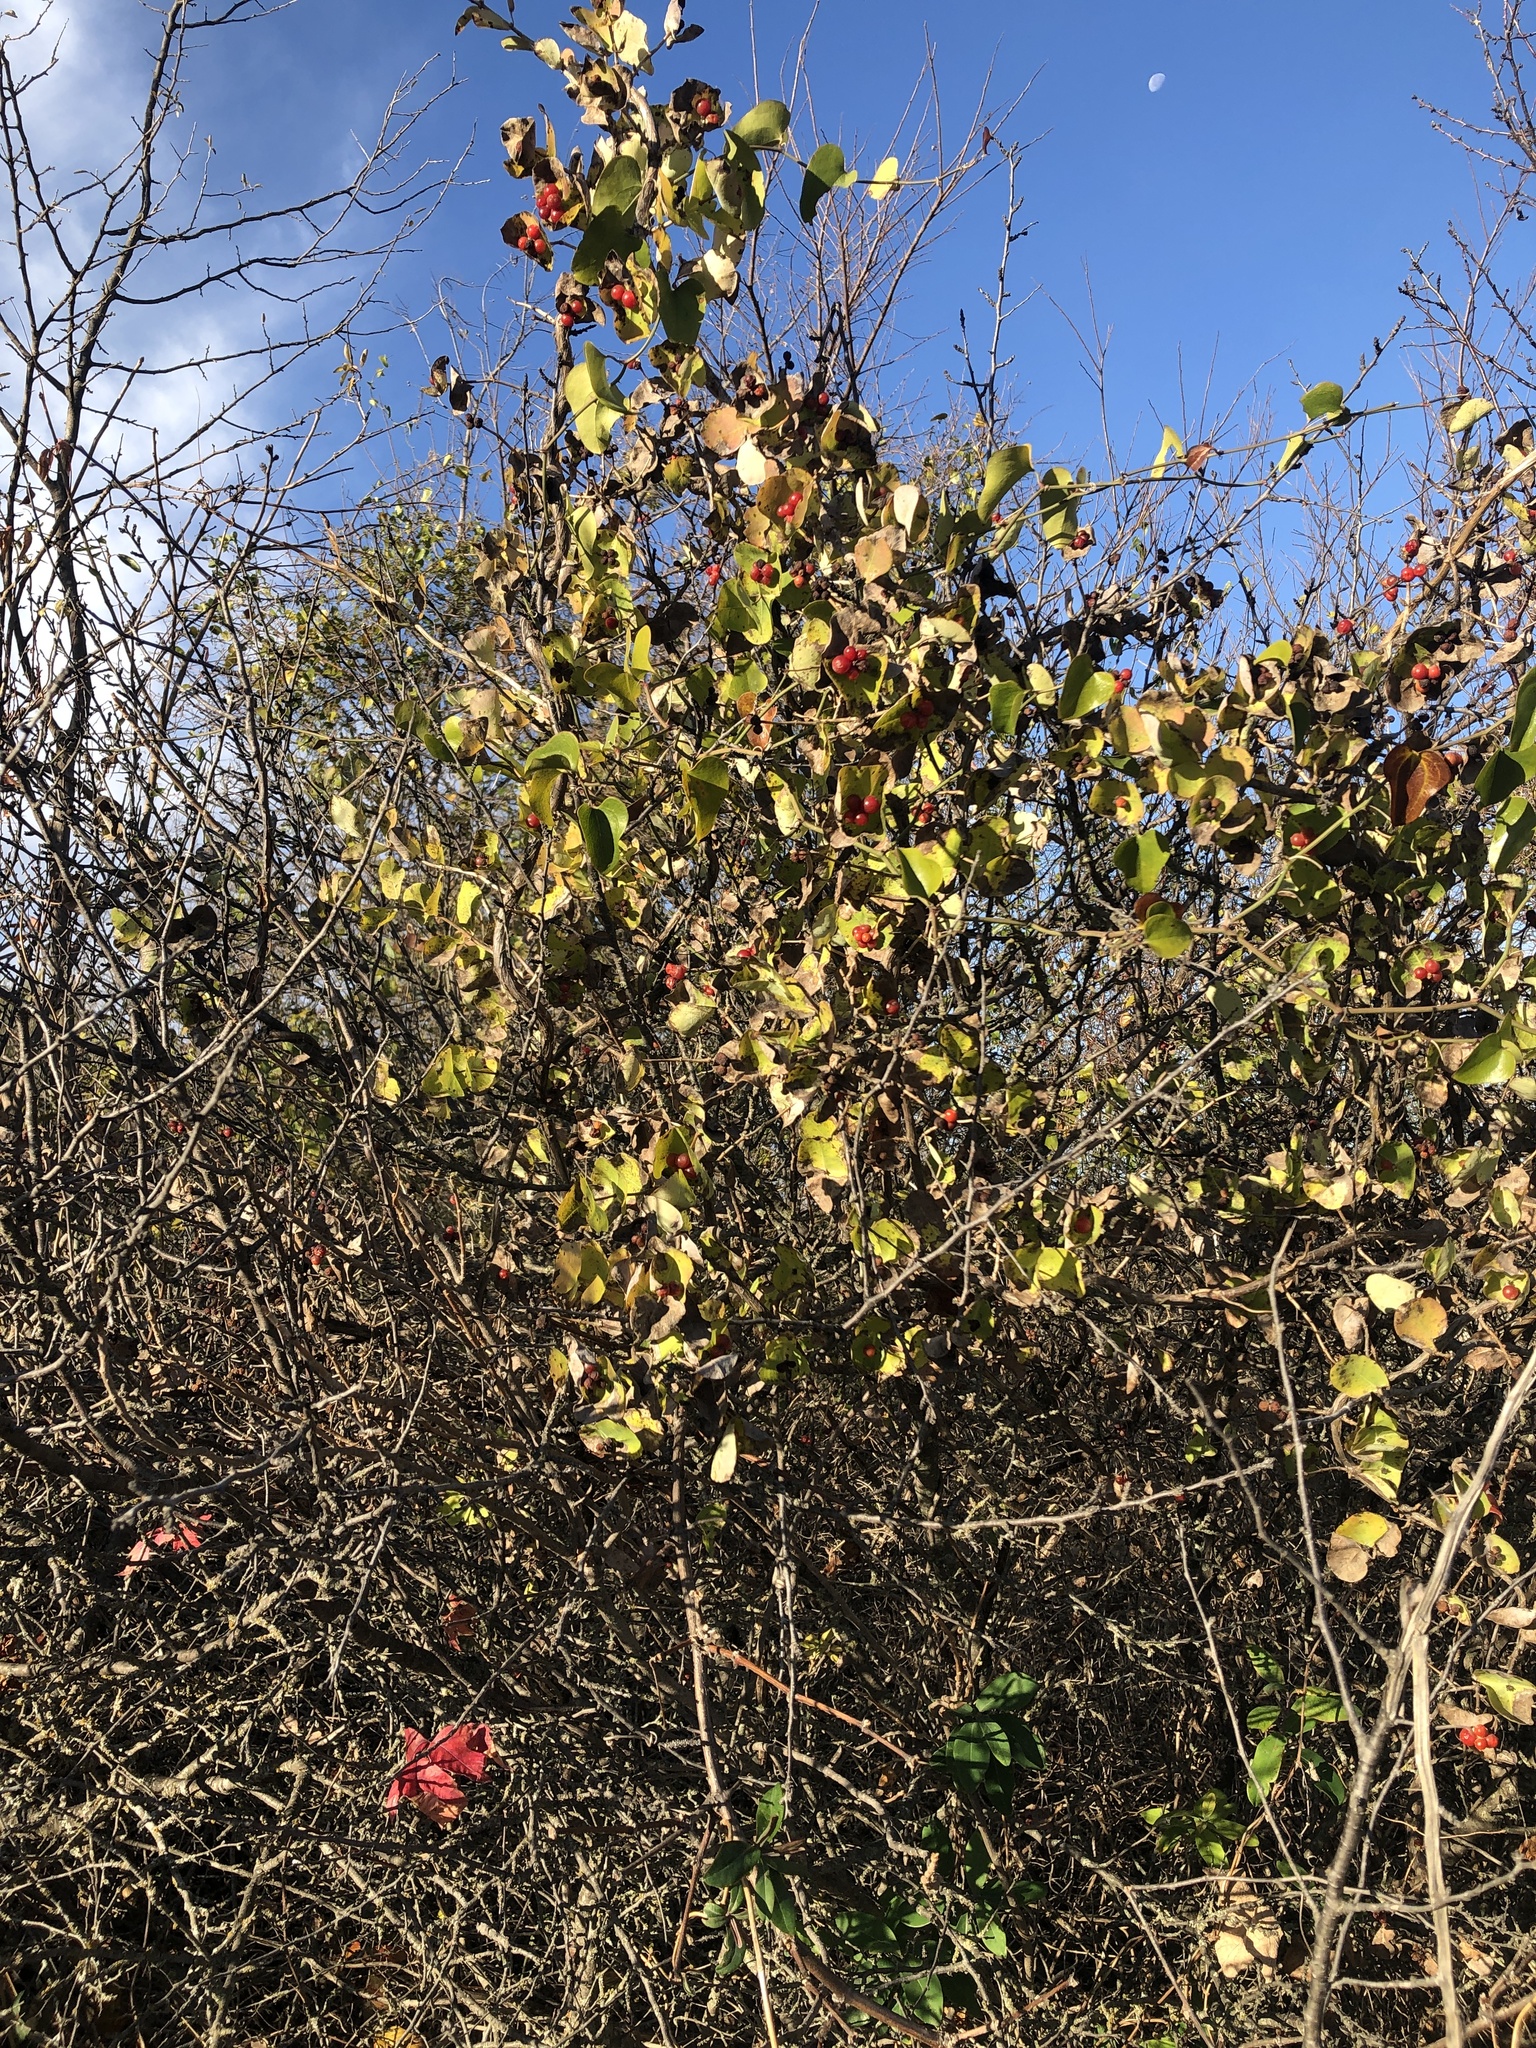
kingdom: Plantae
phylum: Tracheophyta
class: Magnoliopsida
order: Dipsacales
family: Caprifoliaceae
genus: Lonicera
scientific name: Lonicera albiflora
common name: White honeysuckle
